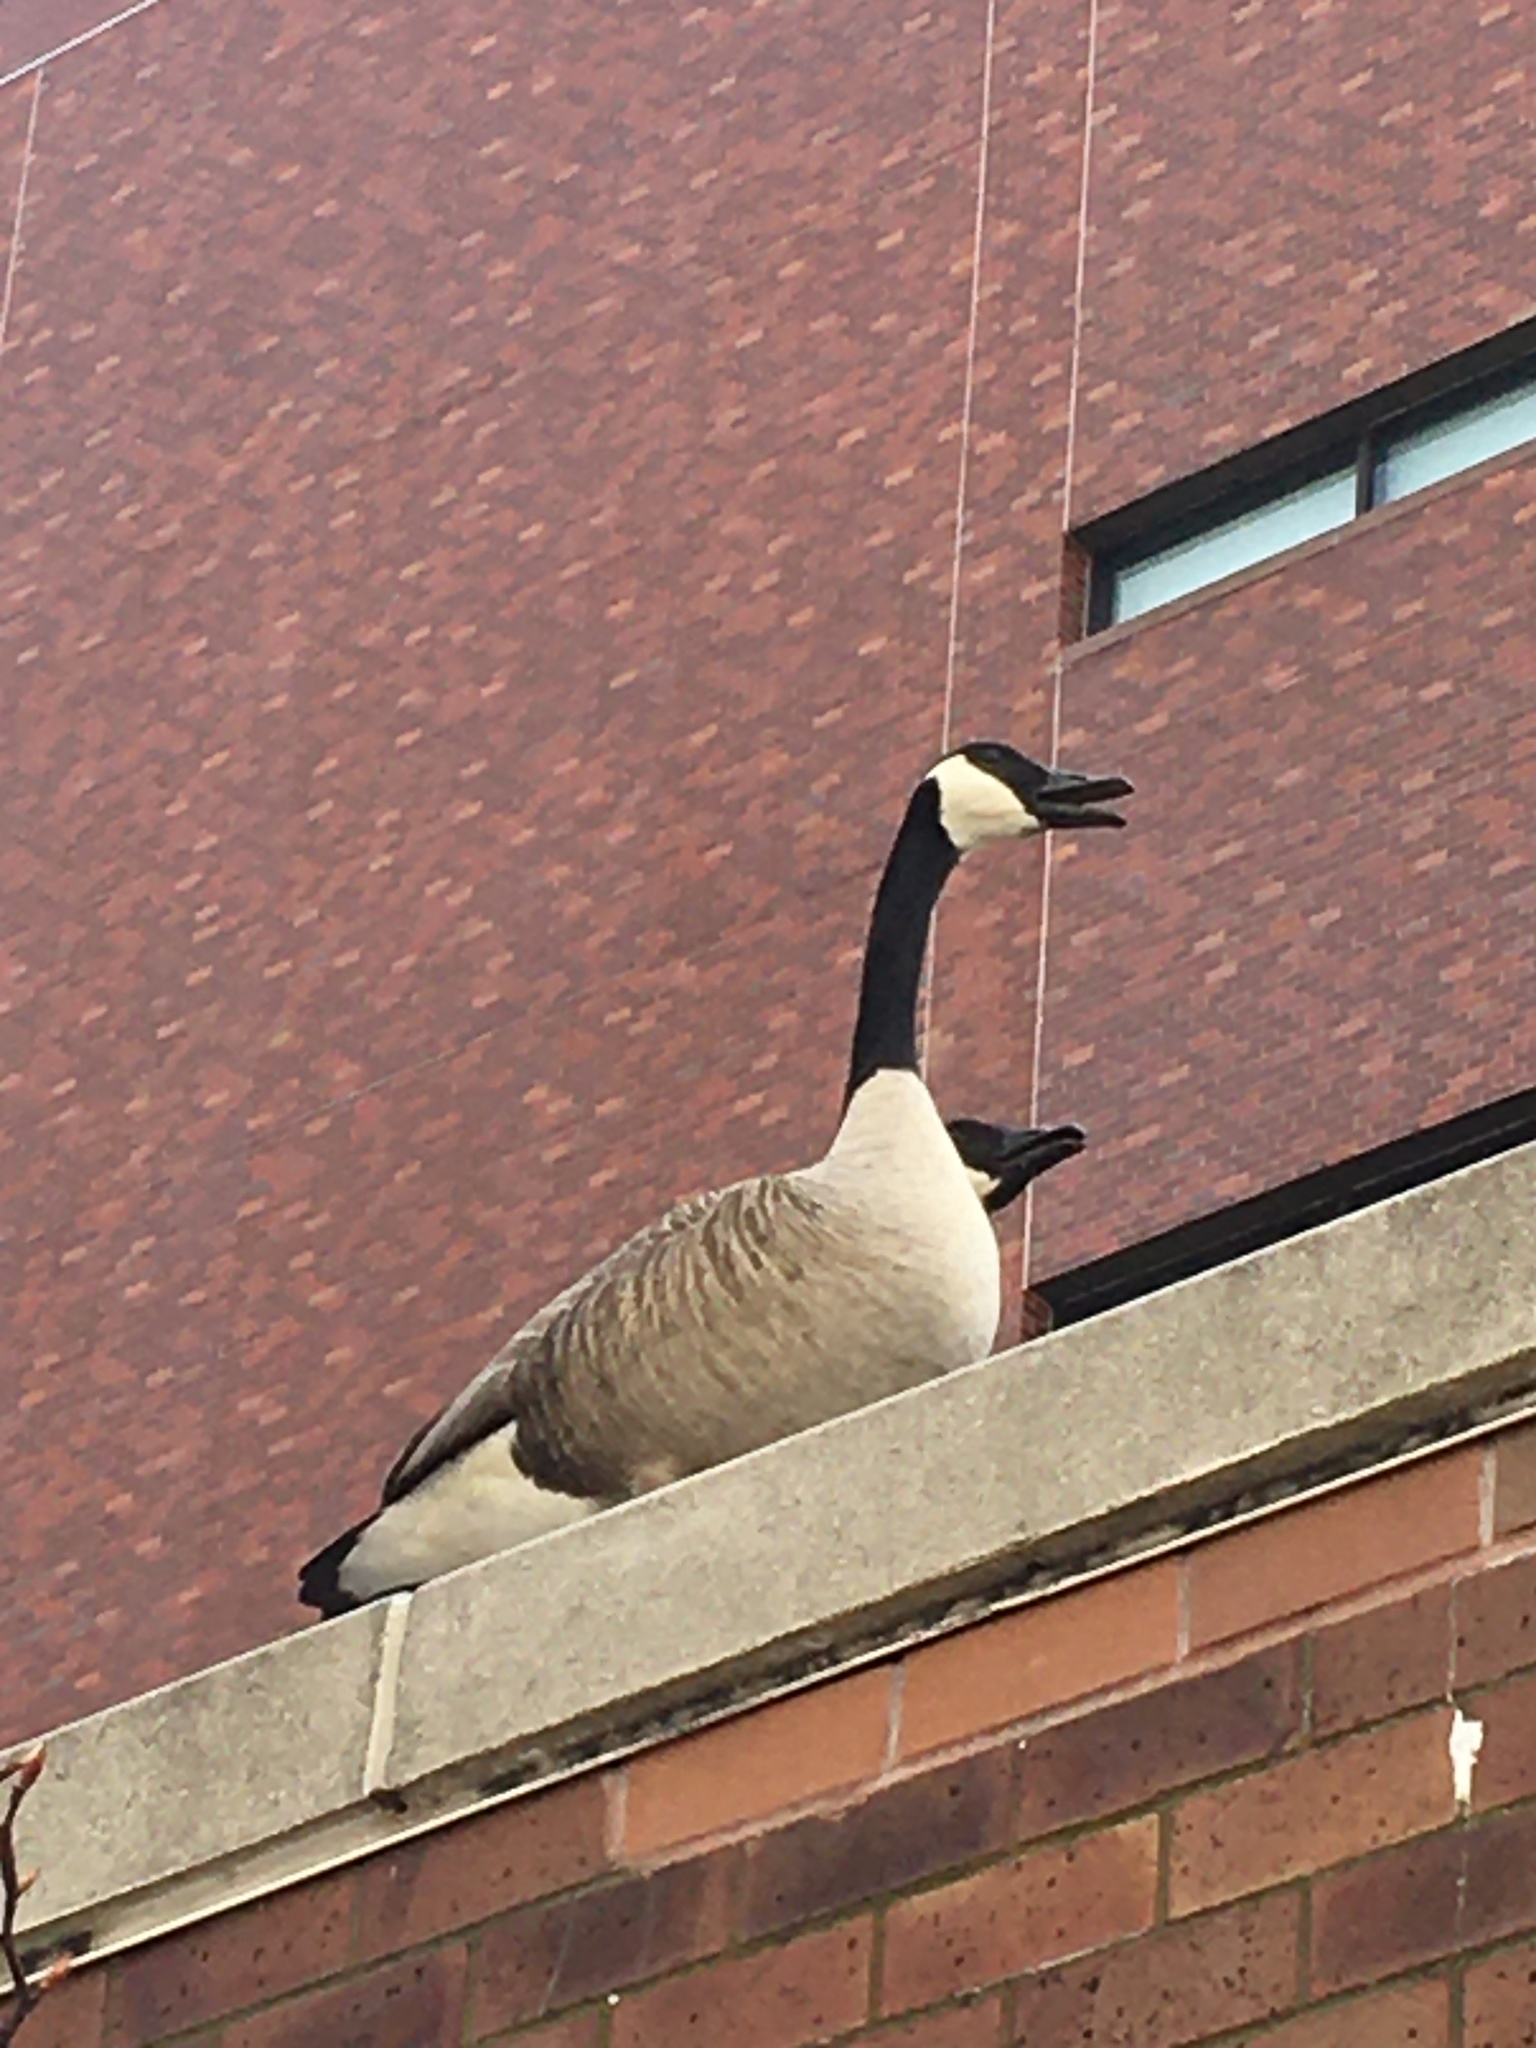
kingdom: Animalia
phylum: Chordata
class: Aves
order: Anseriformes
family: Anatidae
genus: Branta
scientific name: Branta canadensis
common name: Canada goose
